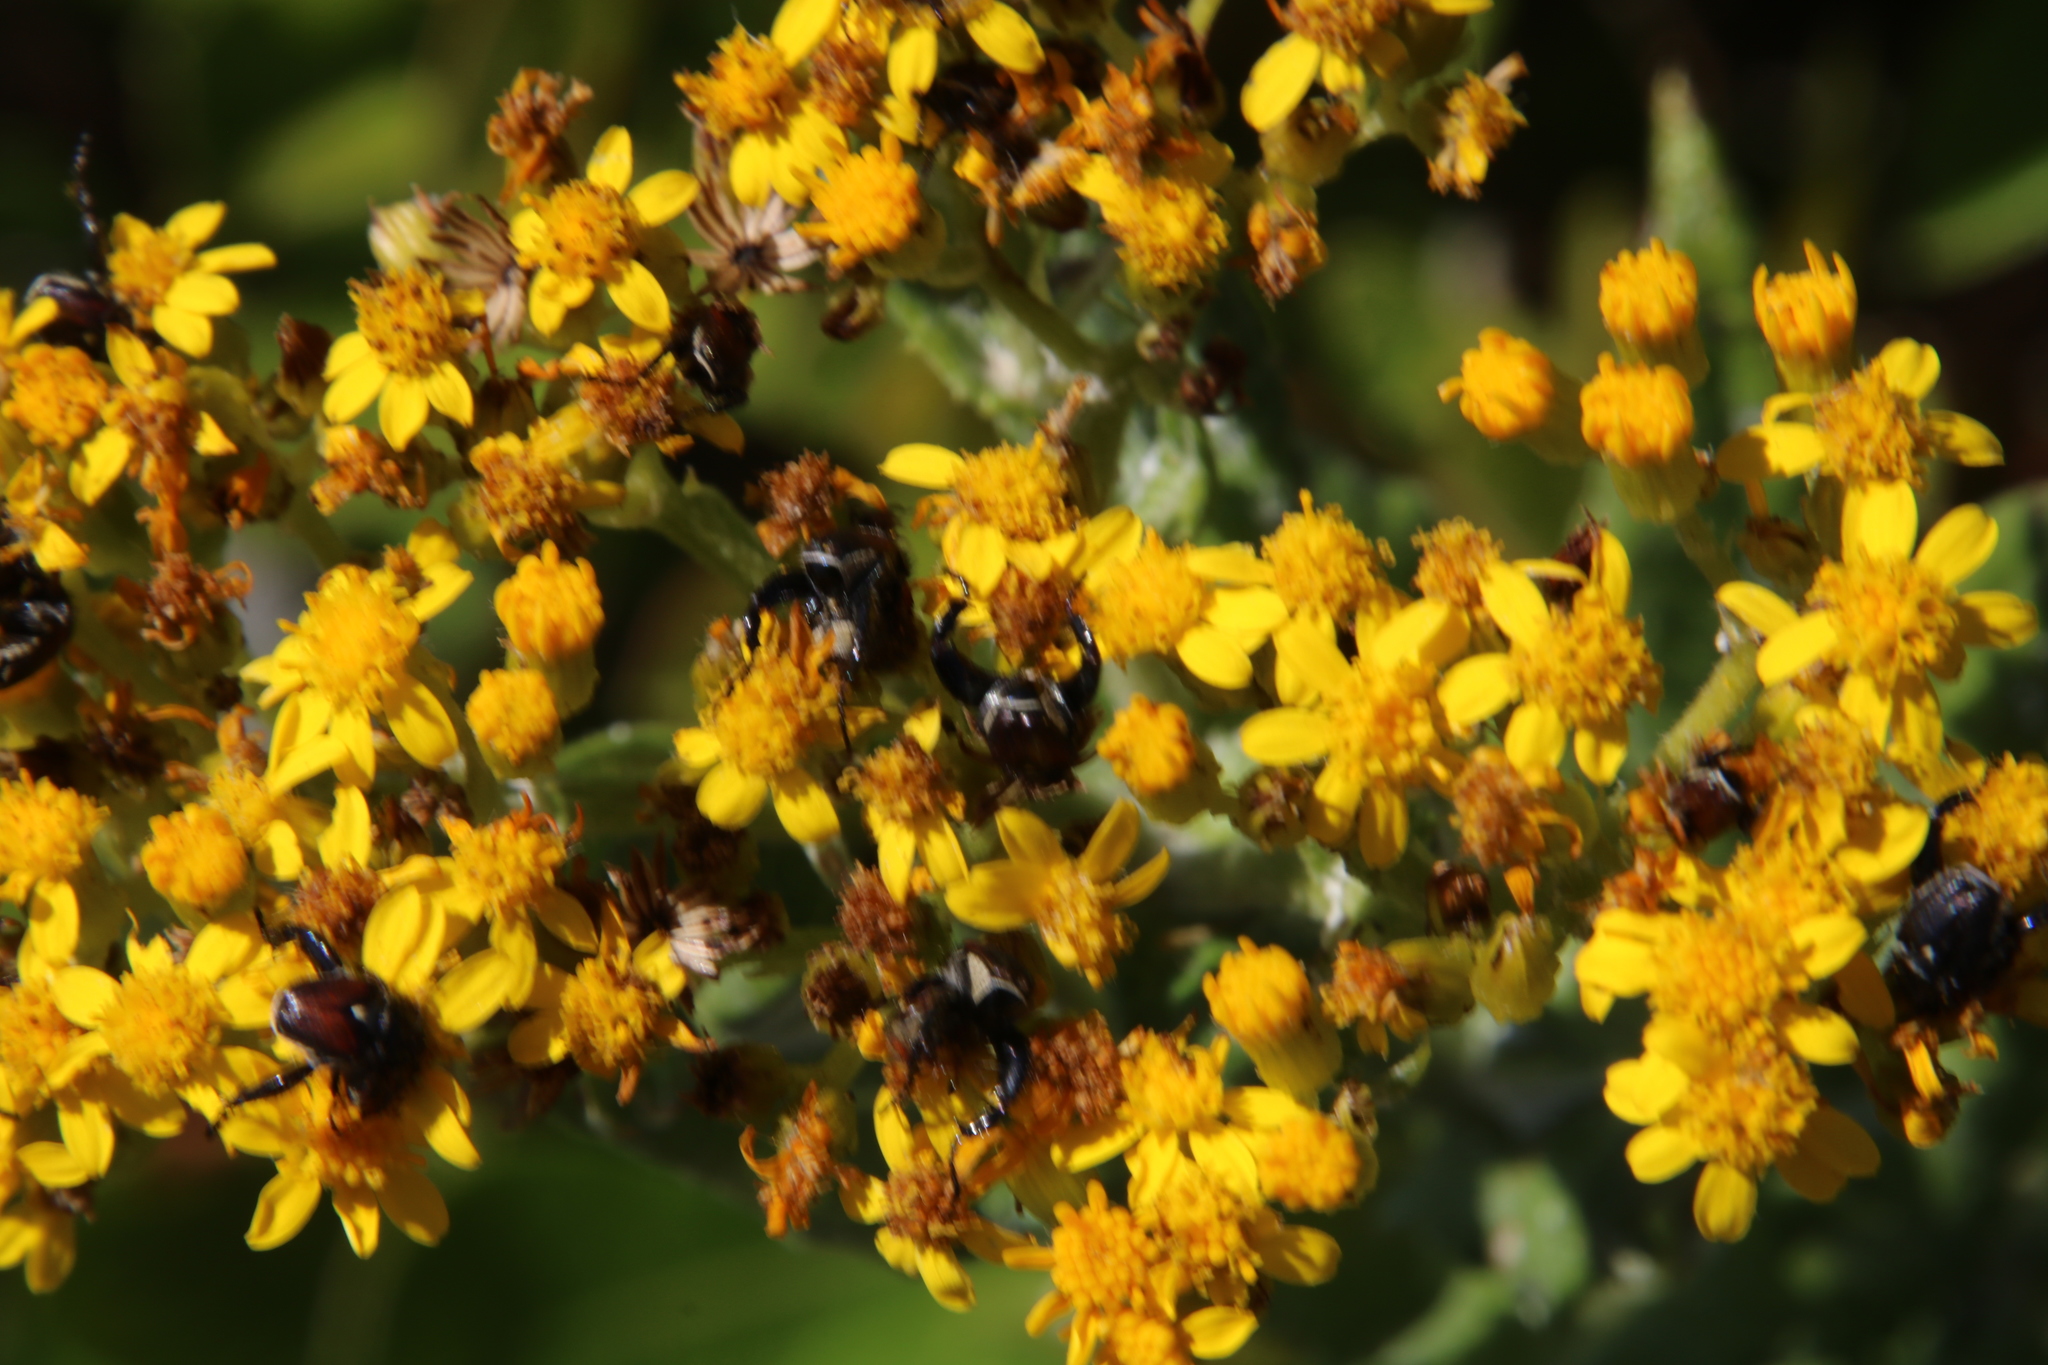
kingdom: Plantae
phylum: Tracheophyta
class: Magnoliopsida
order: Asterales
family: Asteraceae
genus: Senecio
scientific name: Senecio rigidus
